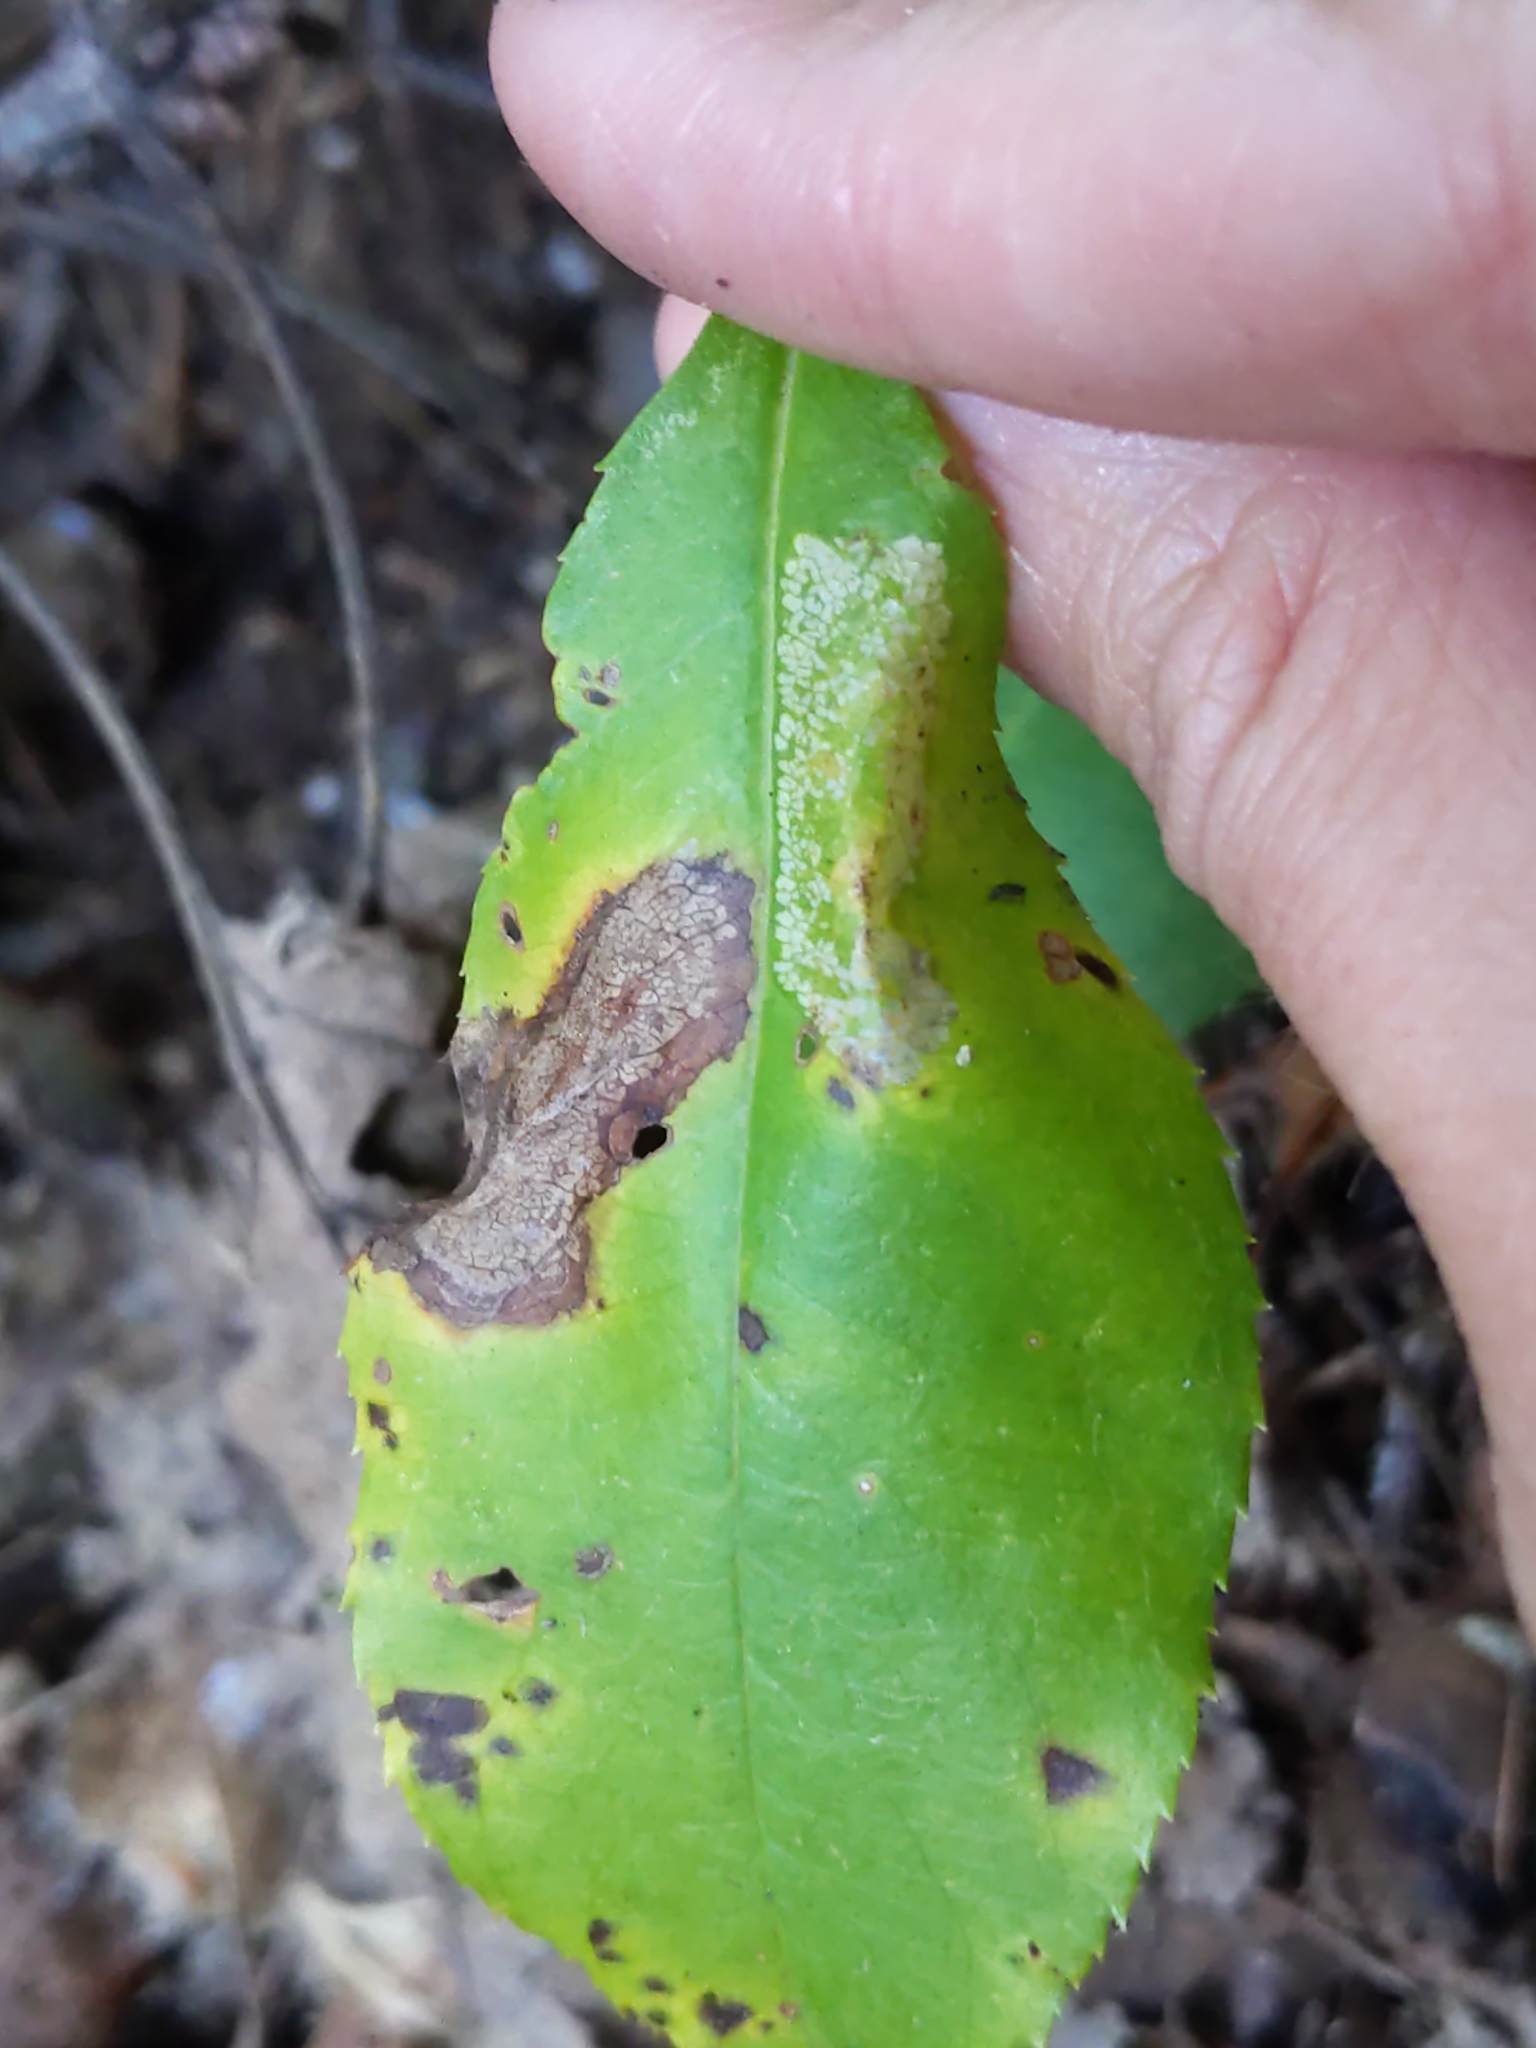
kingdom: Animalia
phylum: Arthropoda
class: Insecta
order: Lepidoptera
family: Gracillariidae
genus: Phyllonorycter
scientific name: Phyllonorycter propinquinella
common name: Cherry blotchminer
